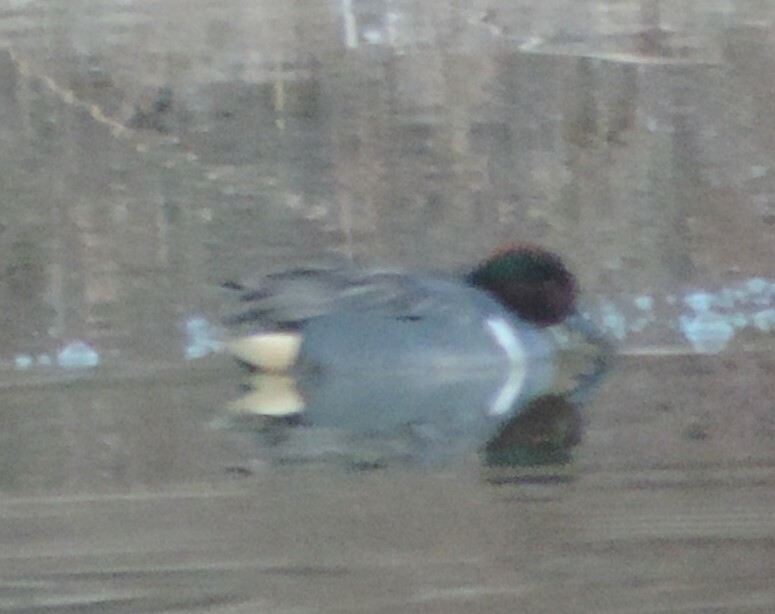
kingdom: Animalia
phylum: Chordata
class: Aves
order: Anseriformes
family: Anatidae
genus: Anas
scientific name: Anas crecca
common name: Eurasian teal
